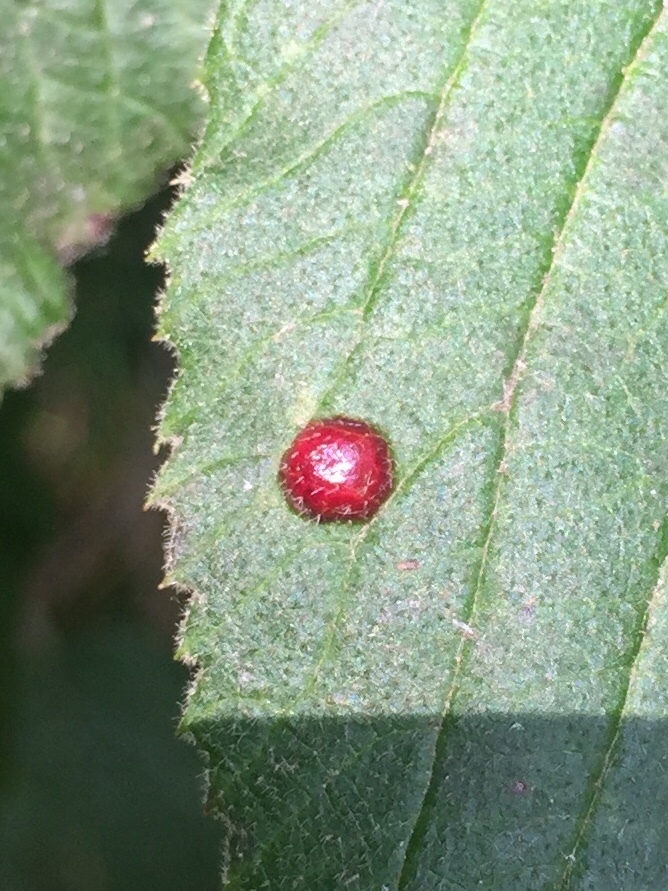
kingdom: Animalia
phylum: Arthropoda
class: Insecta
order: Diptera
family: Cecidomyiidae
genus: Sackenomyia
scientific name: Sackenomyia reaumurii
